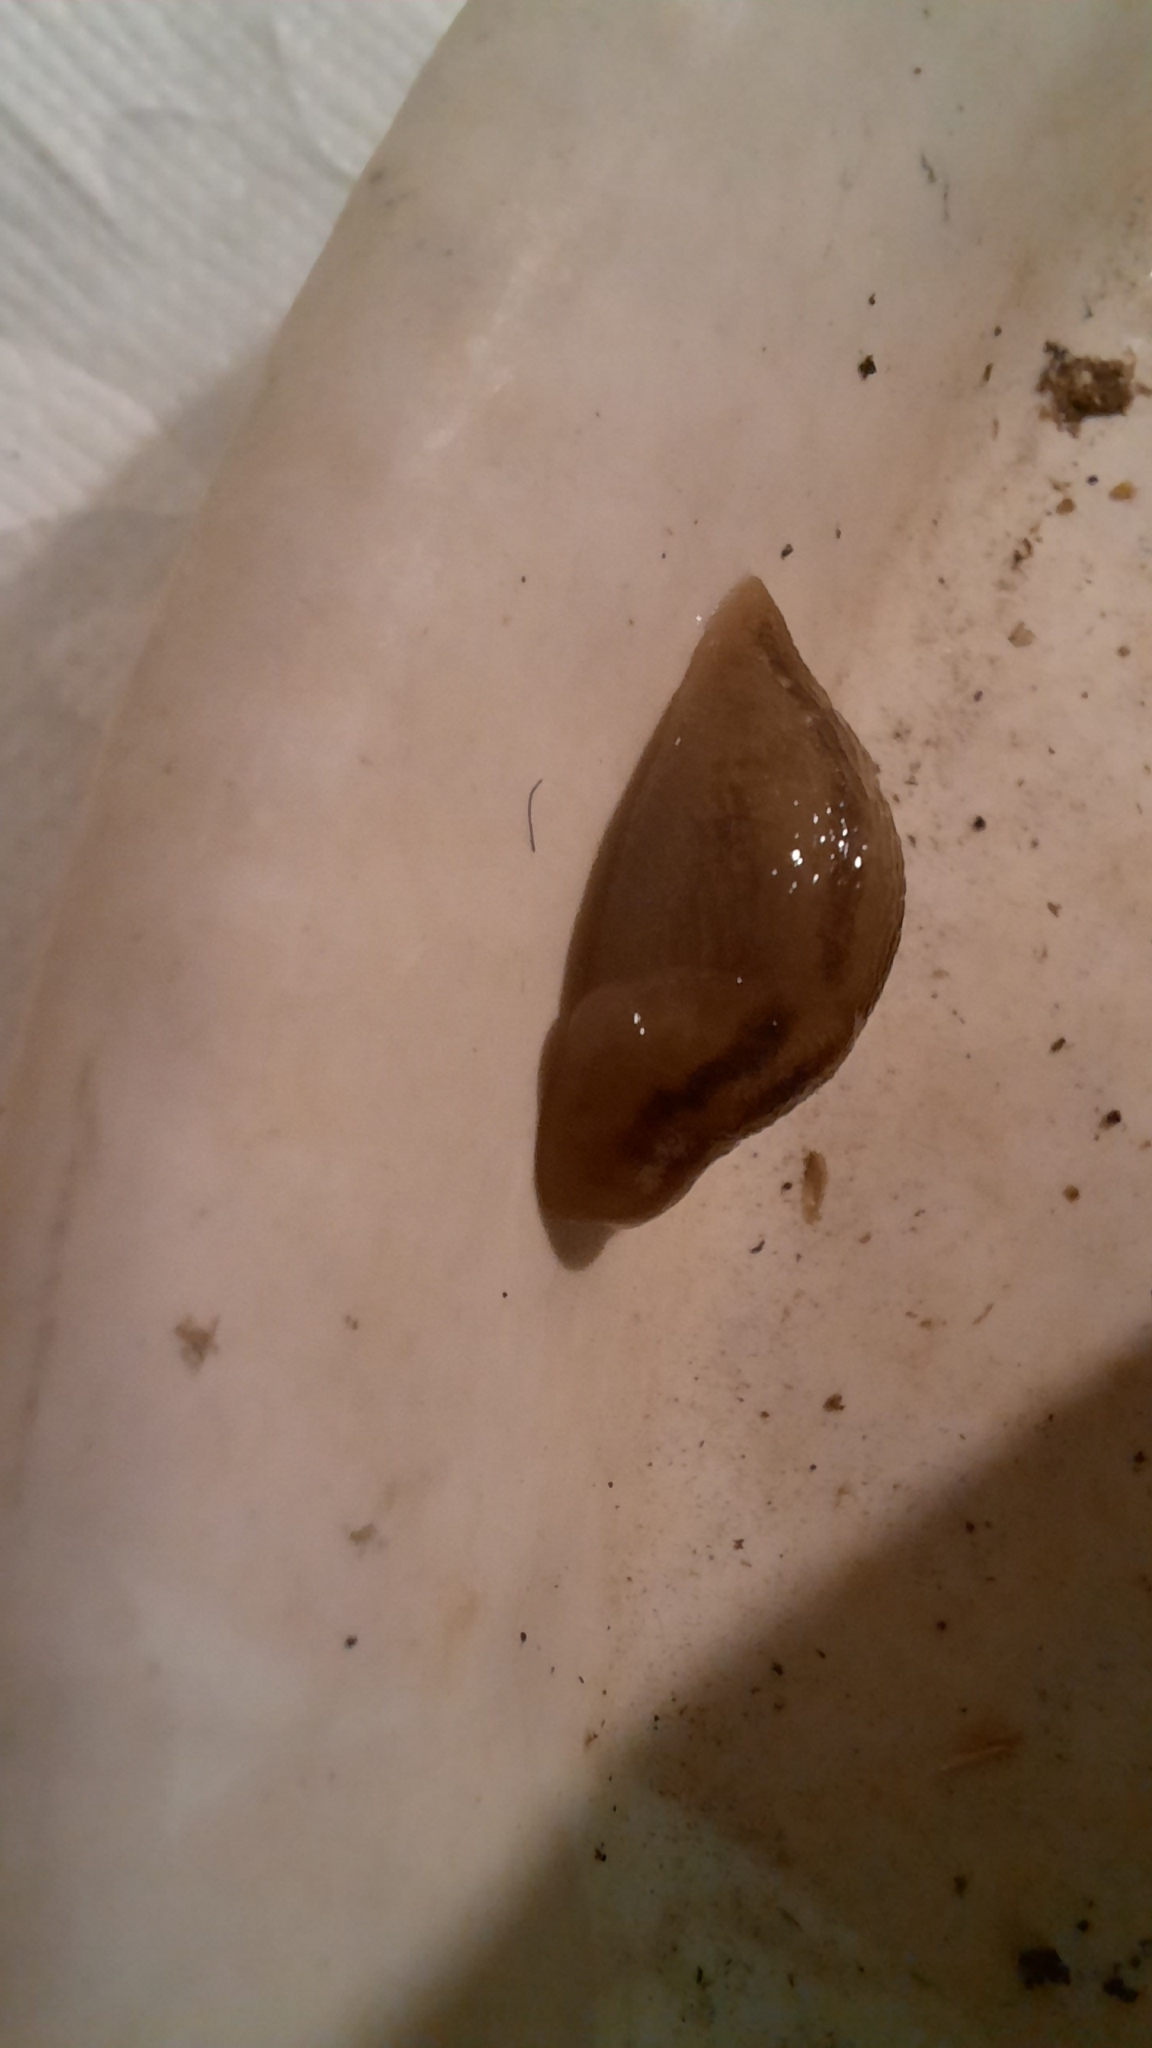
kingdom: Animalia
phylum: Mollusca
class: Gastropoda
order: Stylommatophora
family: Limacidae
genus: Ambigolimax
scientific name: Ambigolimax
